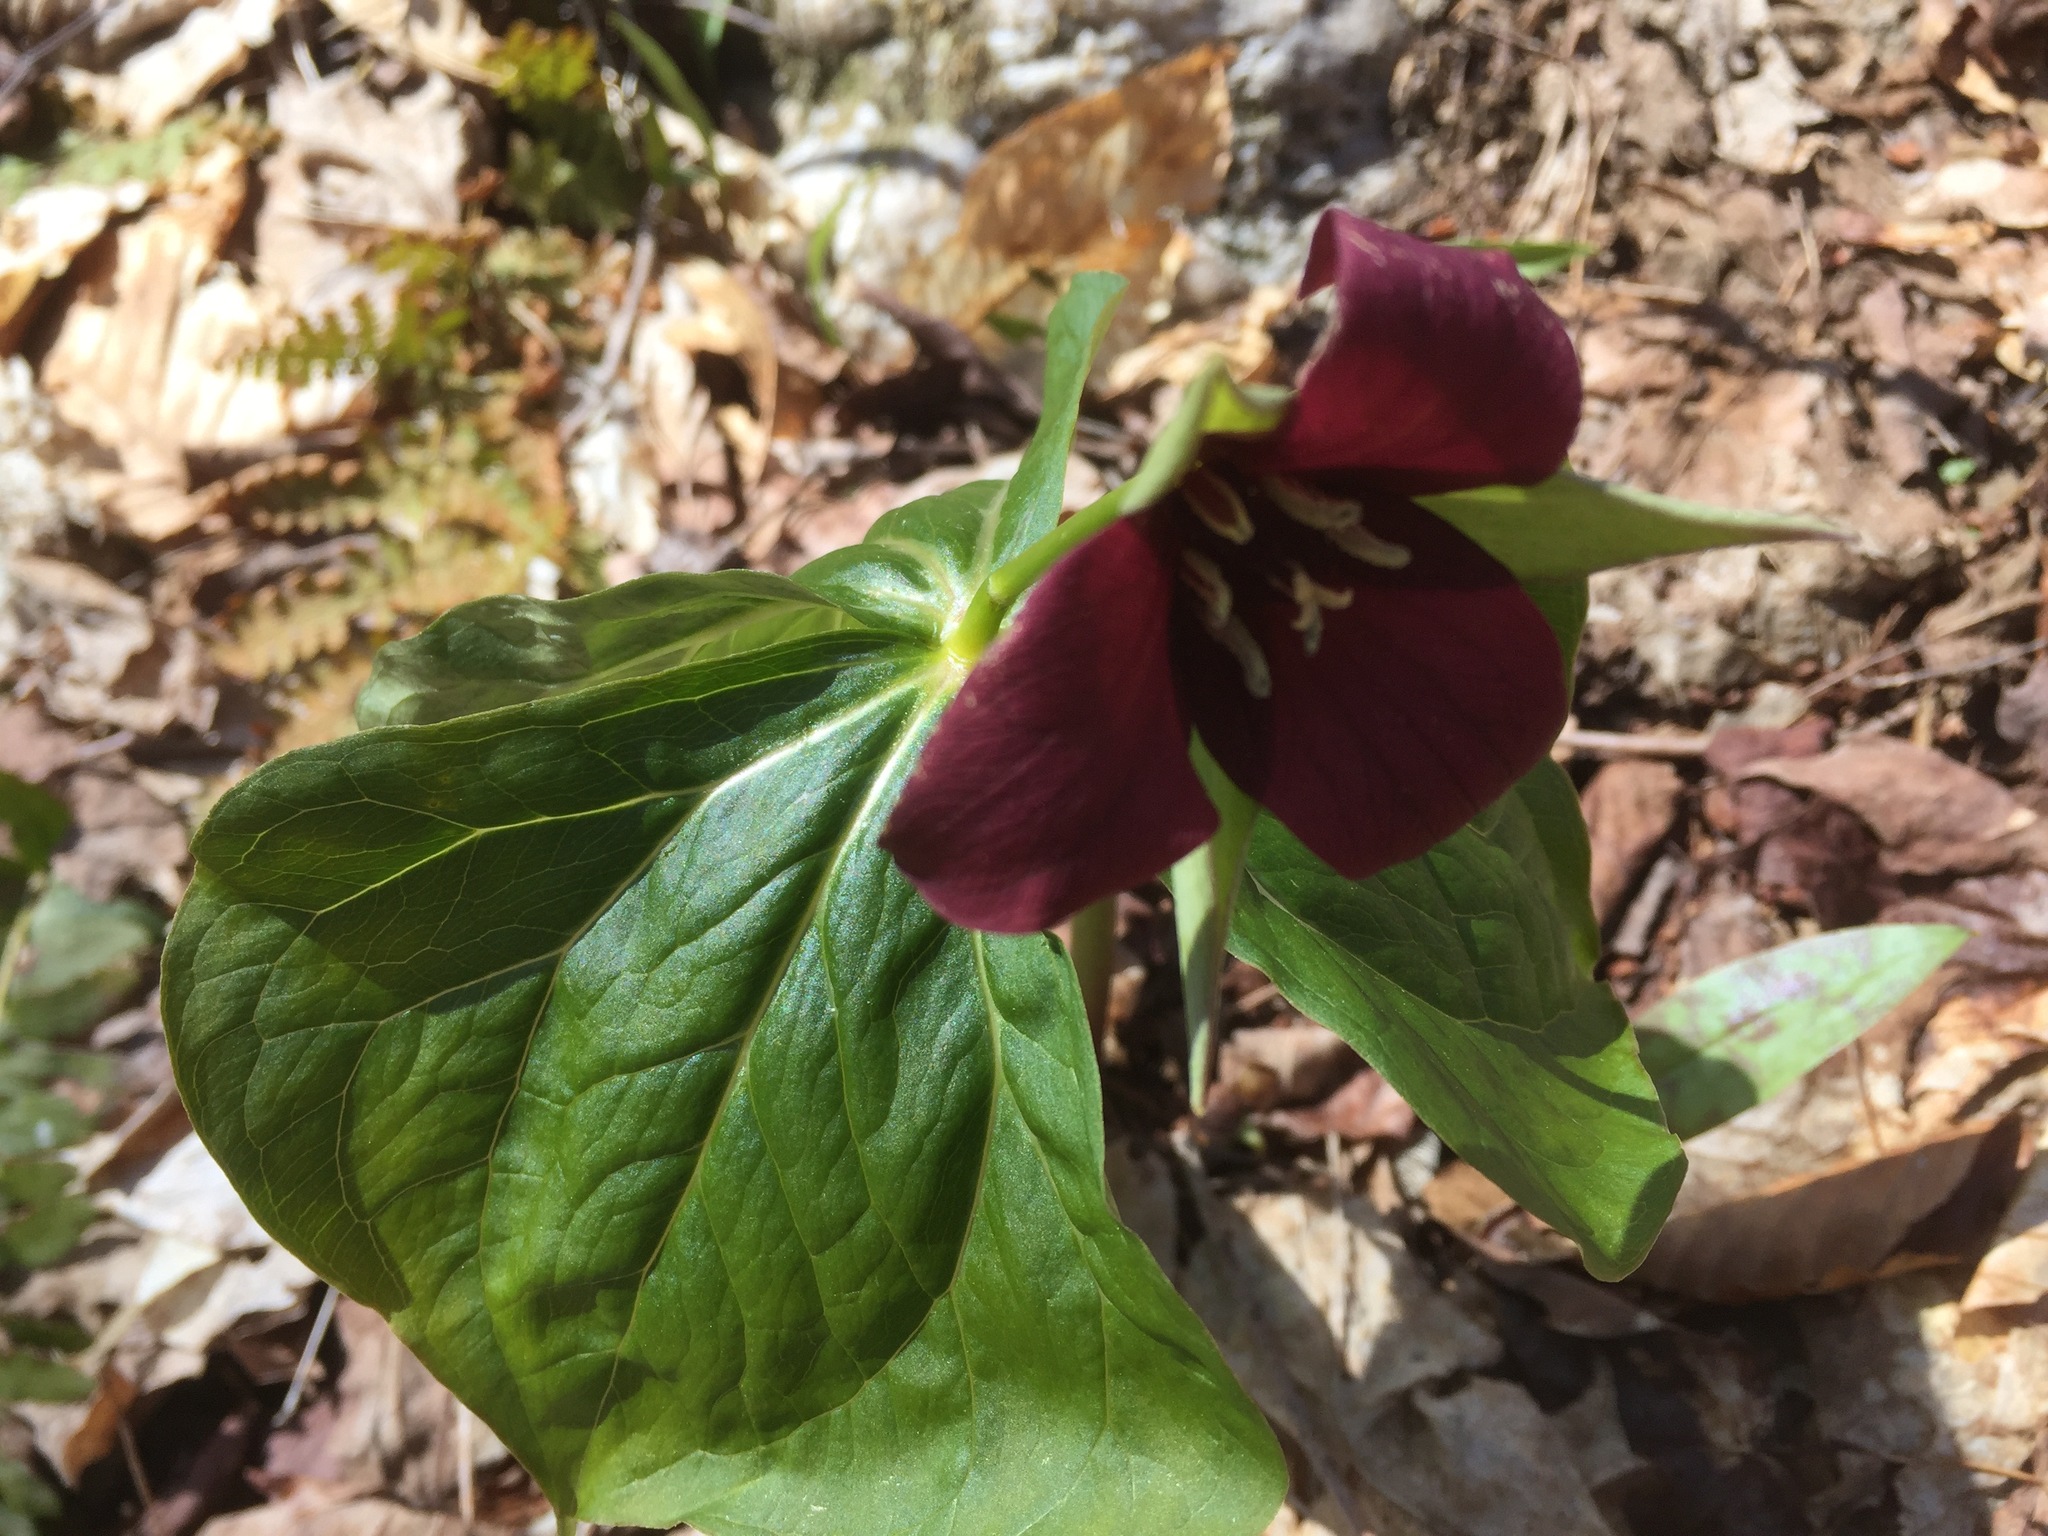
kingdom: Plantae
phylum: Tracheophyta
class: Liliopsida
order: Liliales
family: Melanthiaceae
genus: Trillium
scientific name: Trillium erectum
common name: Purple trillium
